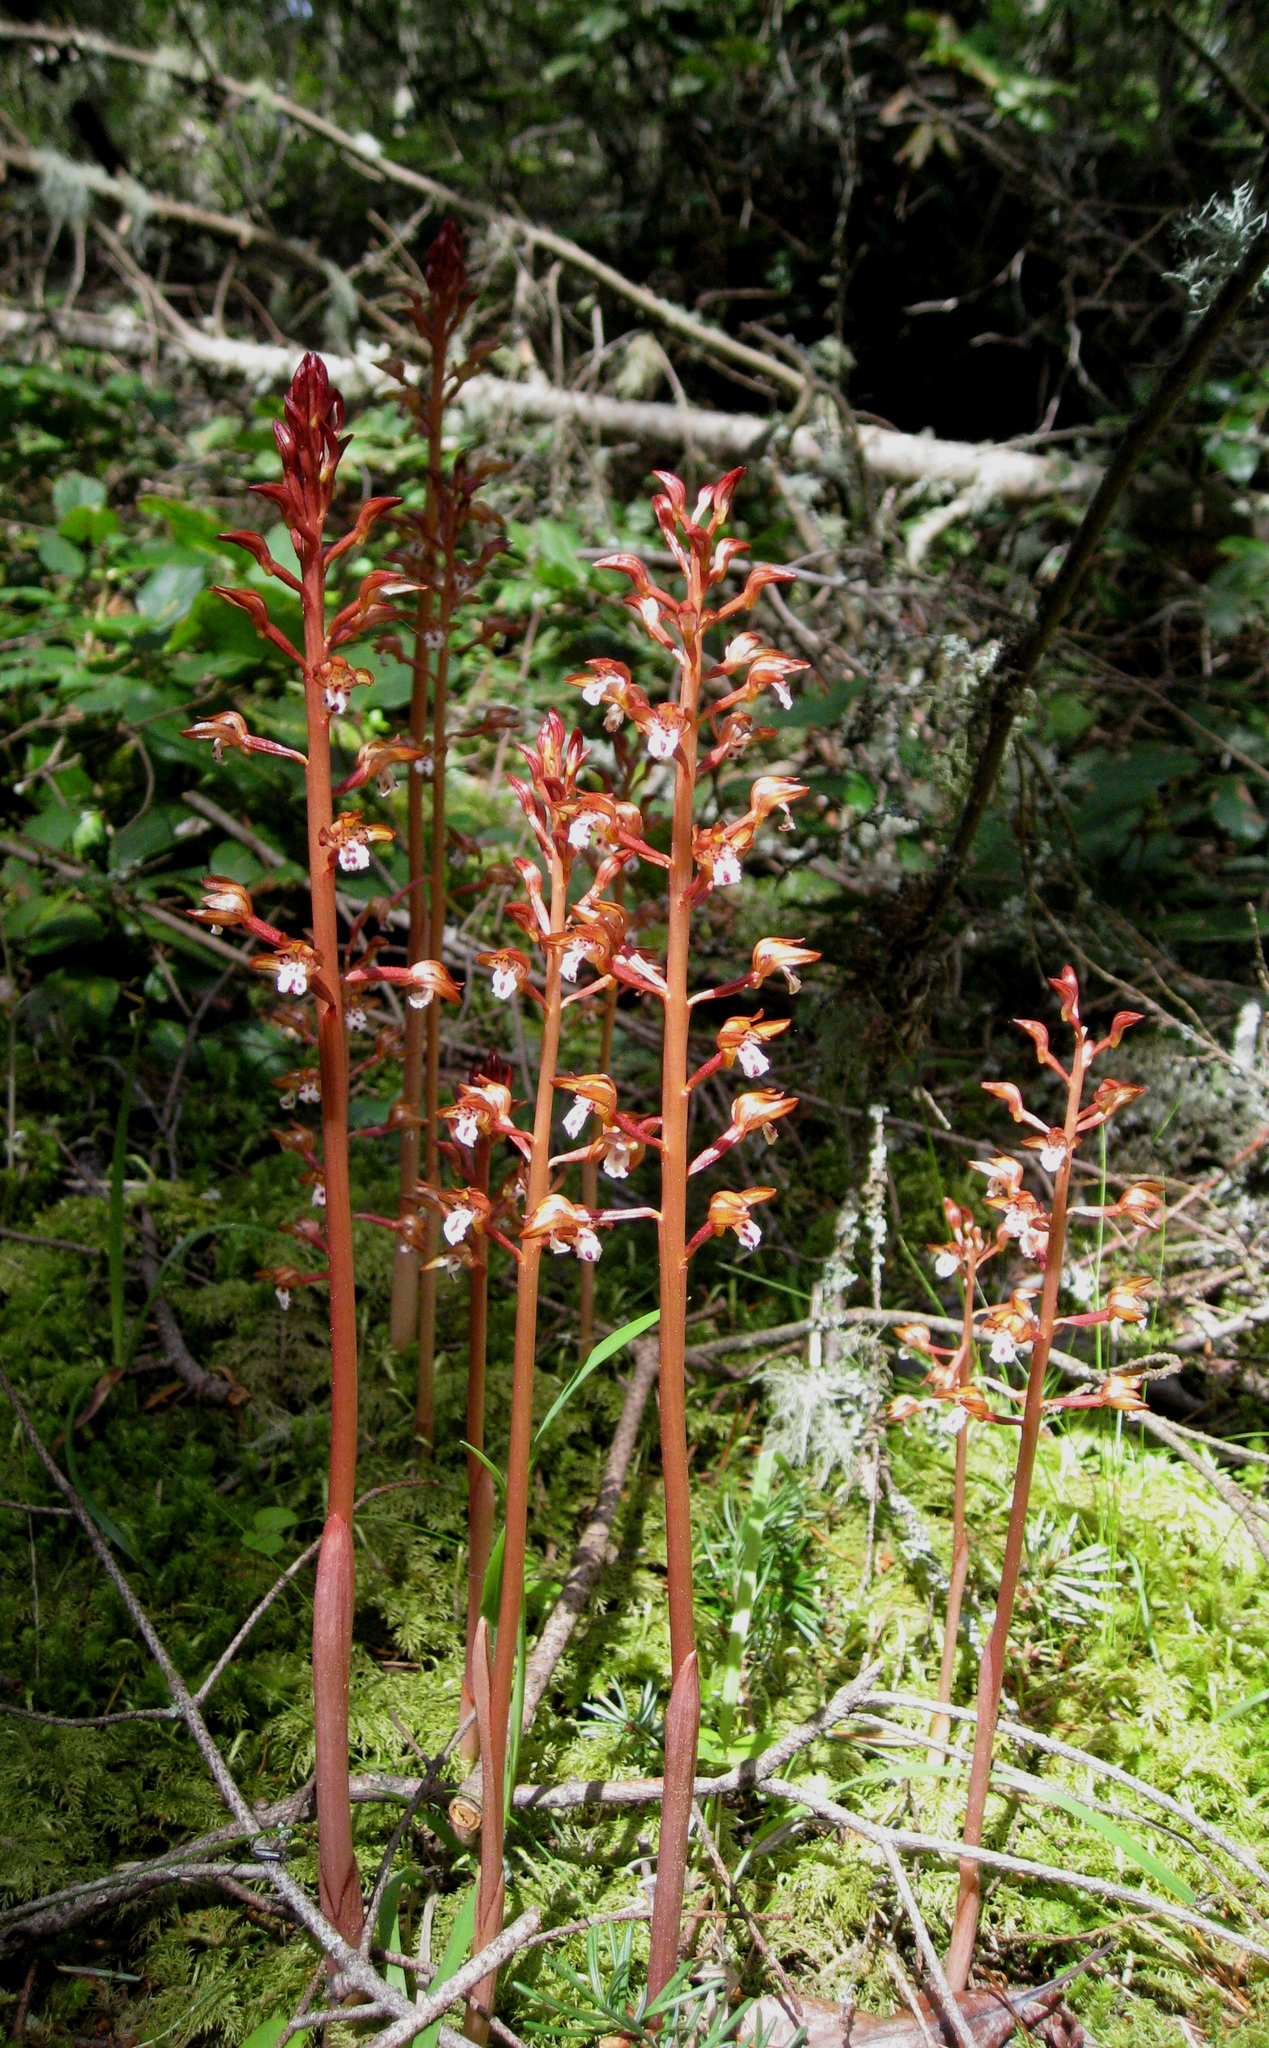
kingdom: Plantae
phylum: Tracheophyta
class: Liliopsida
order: Asparagales
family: Orchidaceae
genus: Corallorhiza
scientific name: Corallorhiza maculata
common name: Spotted coralroot
